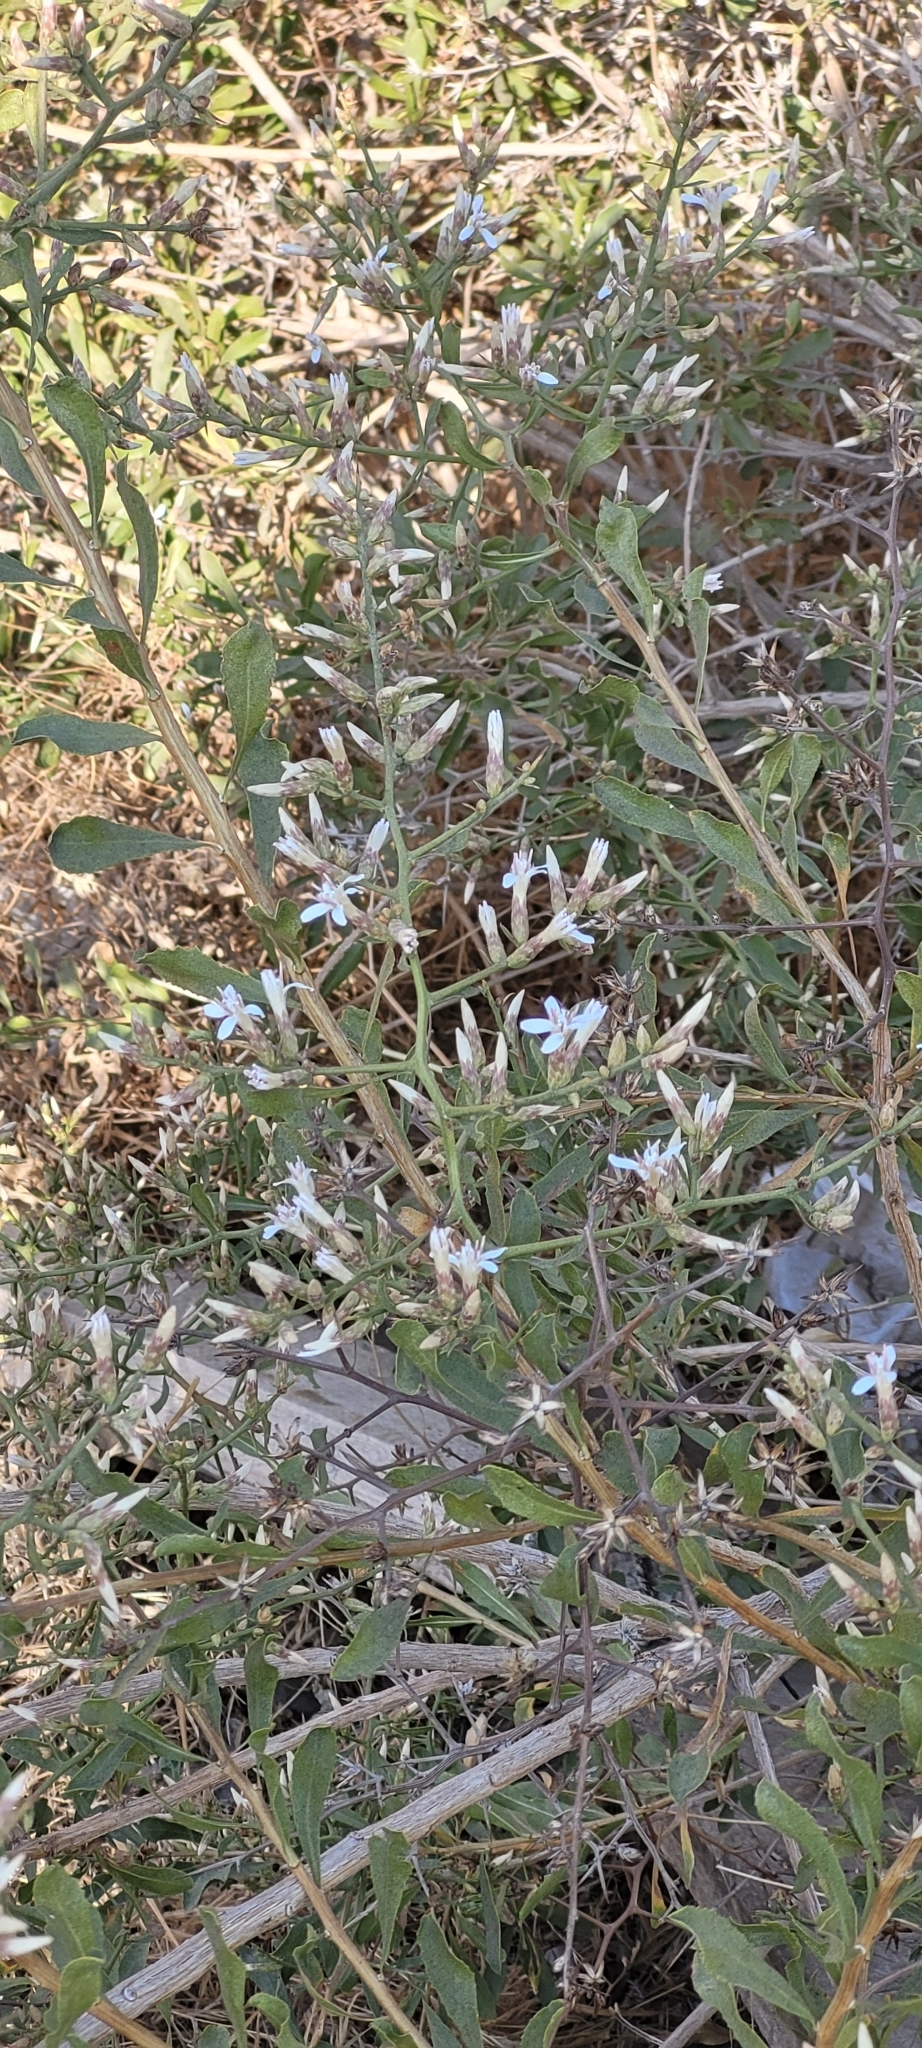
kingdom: Plantae
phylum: Tracheophyta
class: Magnoliopsida
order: Asterales
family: Asteraceae
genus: Proustia
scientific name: Proustia cuneifolia
